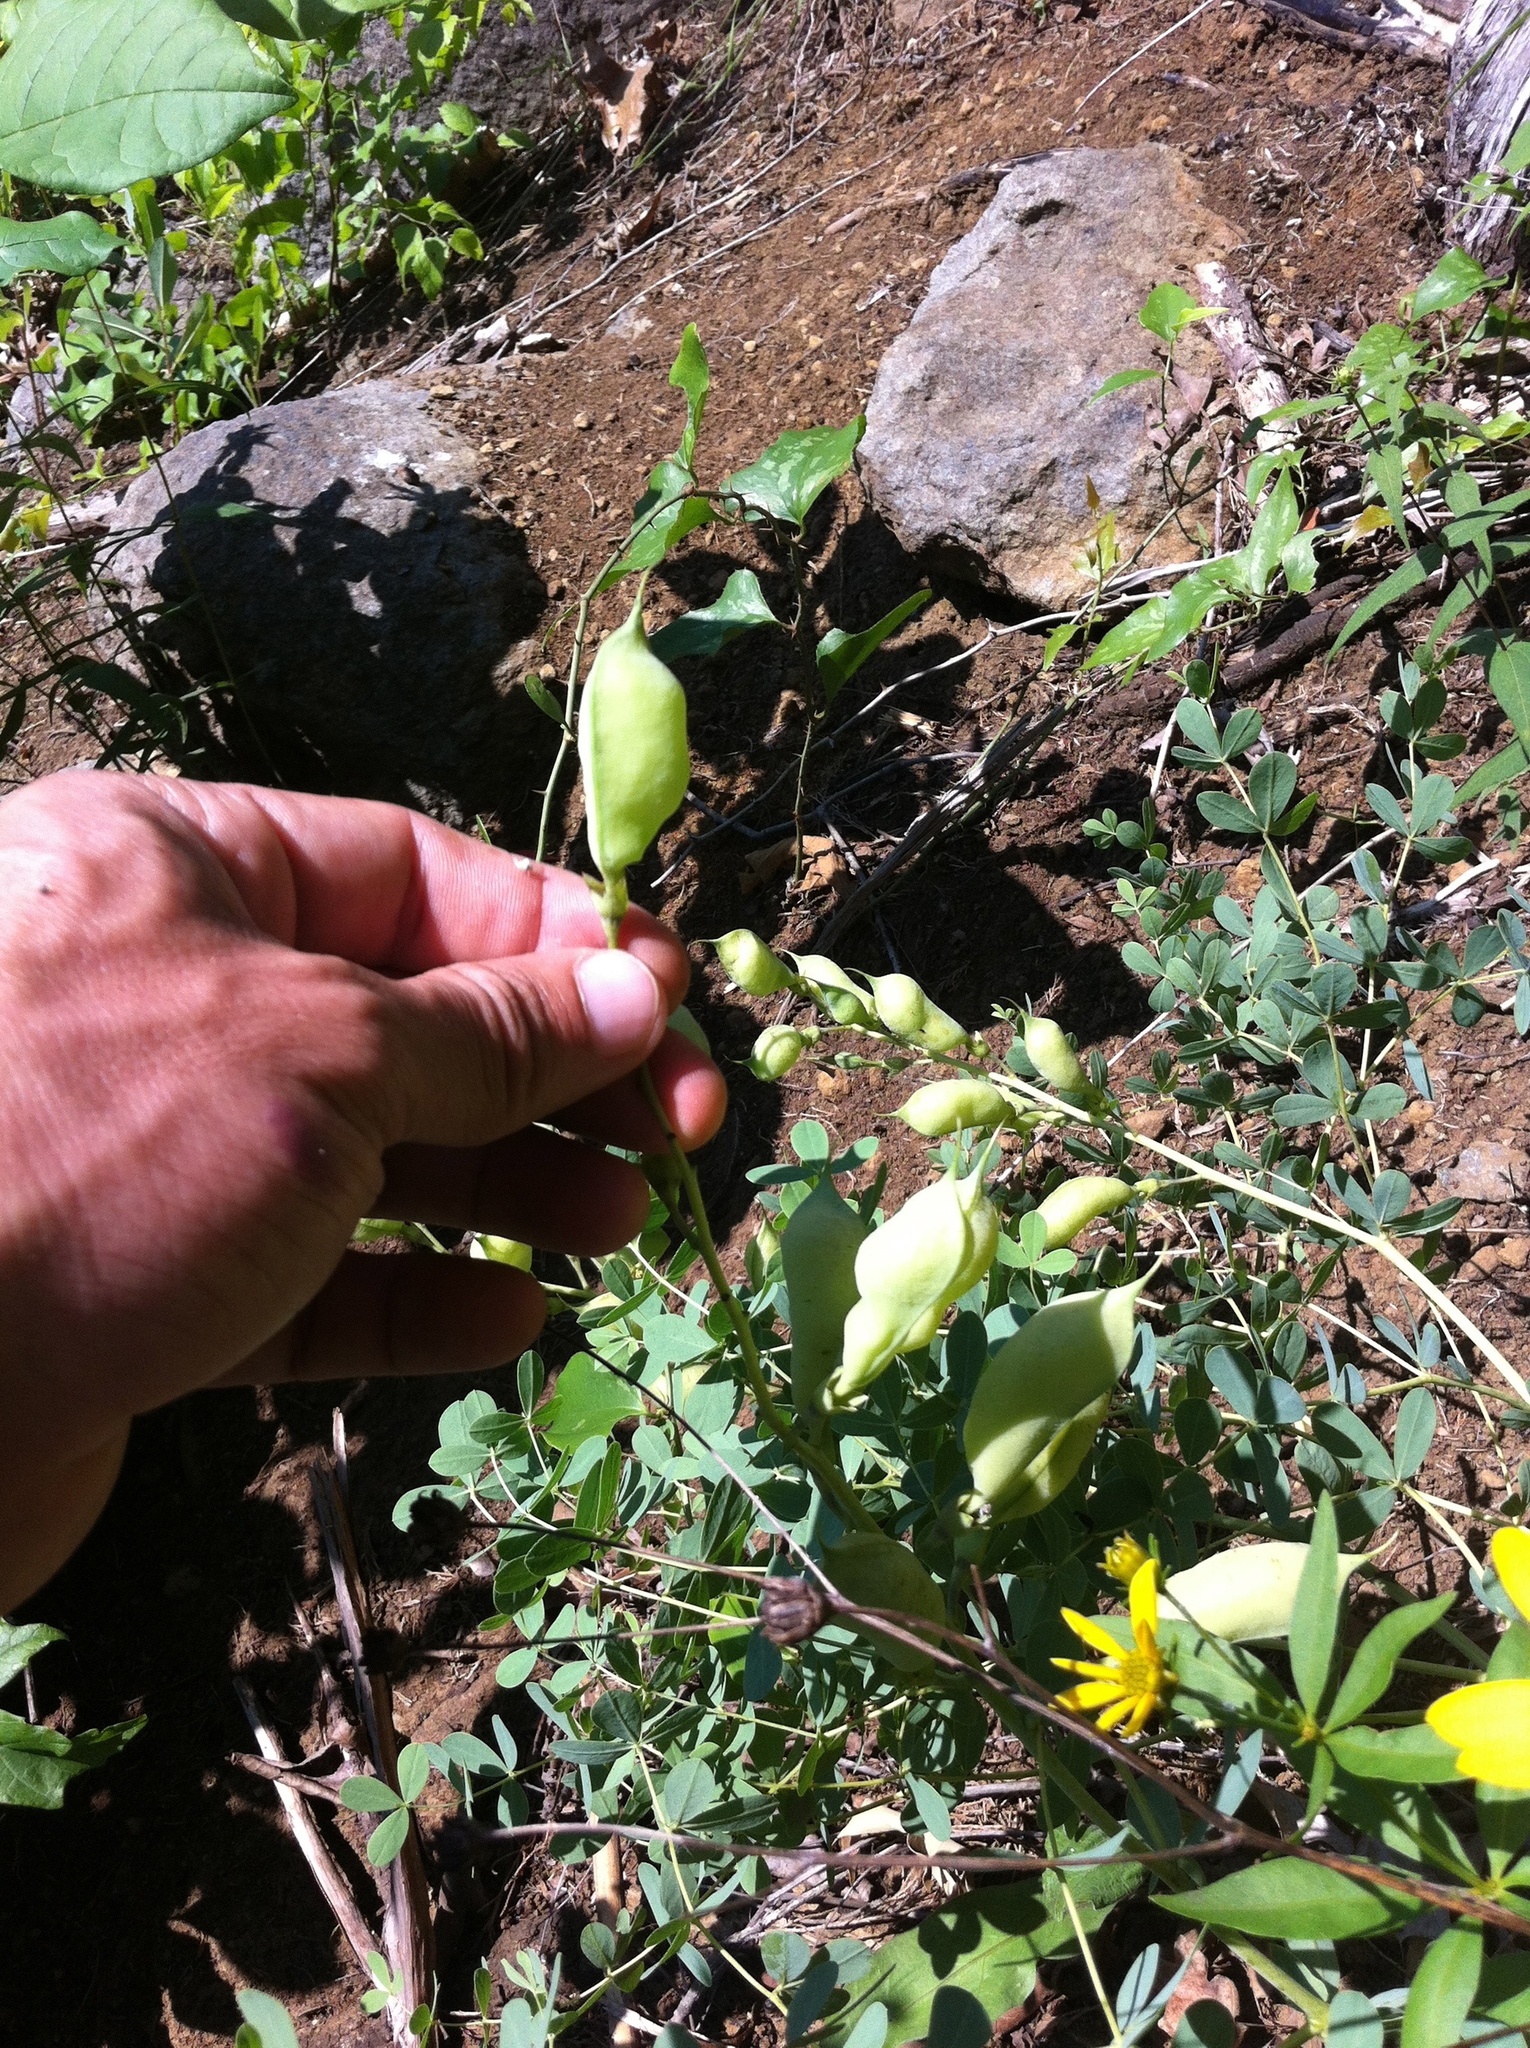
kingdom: Plantae
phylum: Tracheophyta
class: Magnoliopsida
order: Fabales
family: Fabaceae
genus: Baptisia
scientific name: Baptisia aberrans
